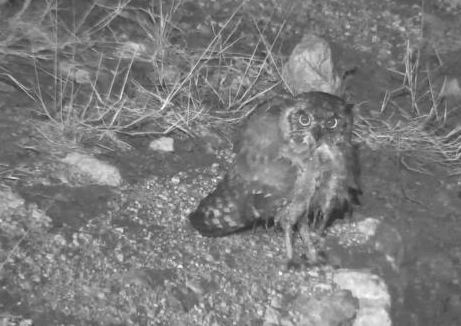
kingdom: Animalia
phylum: Chordata
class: Aves
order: Strigiformes
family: Strigidae
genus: Bubo
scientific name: Bubo africanus
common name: Spotted eagle-owl
